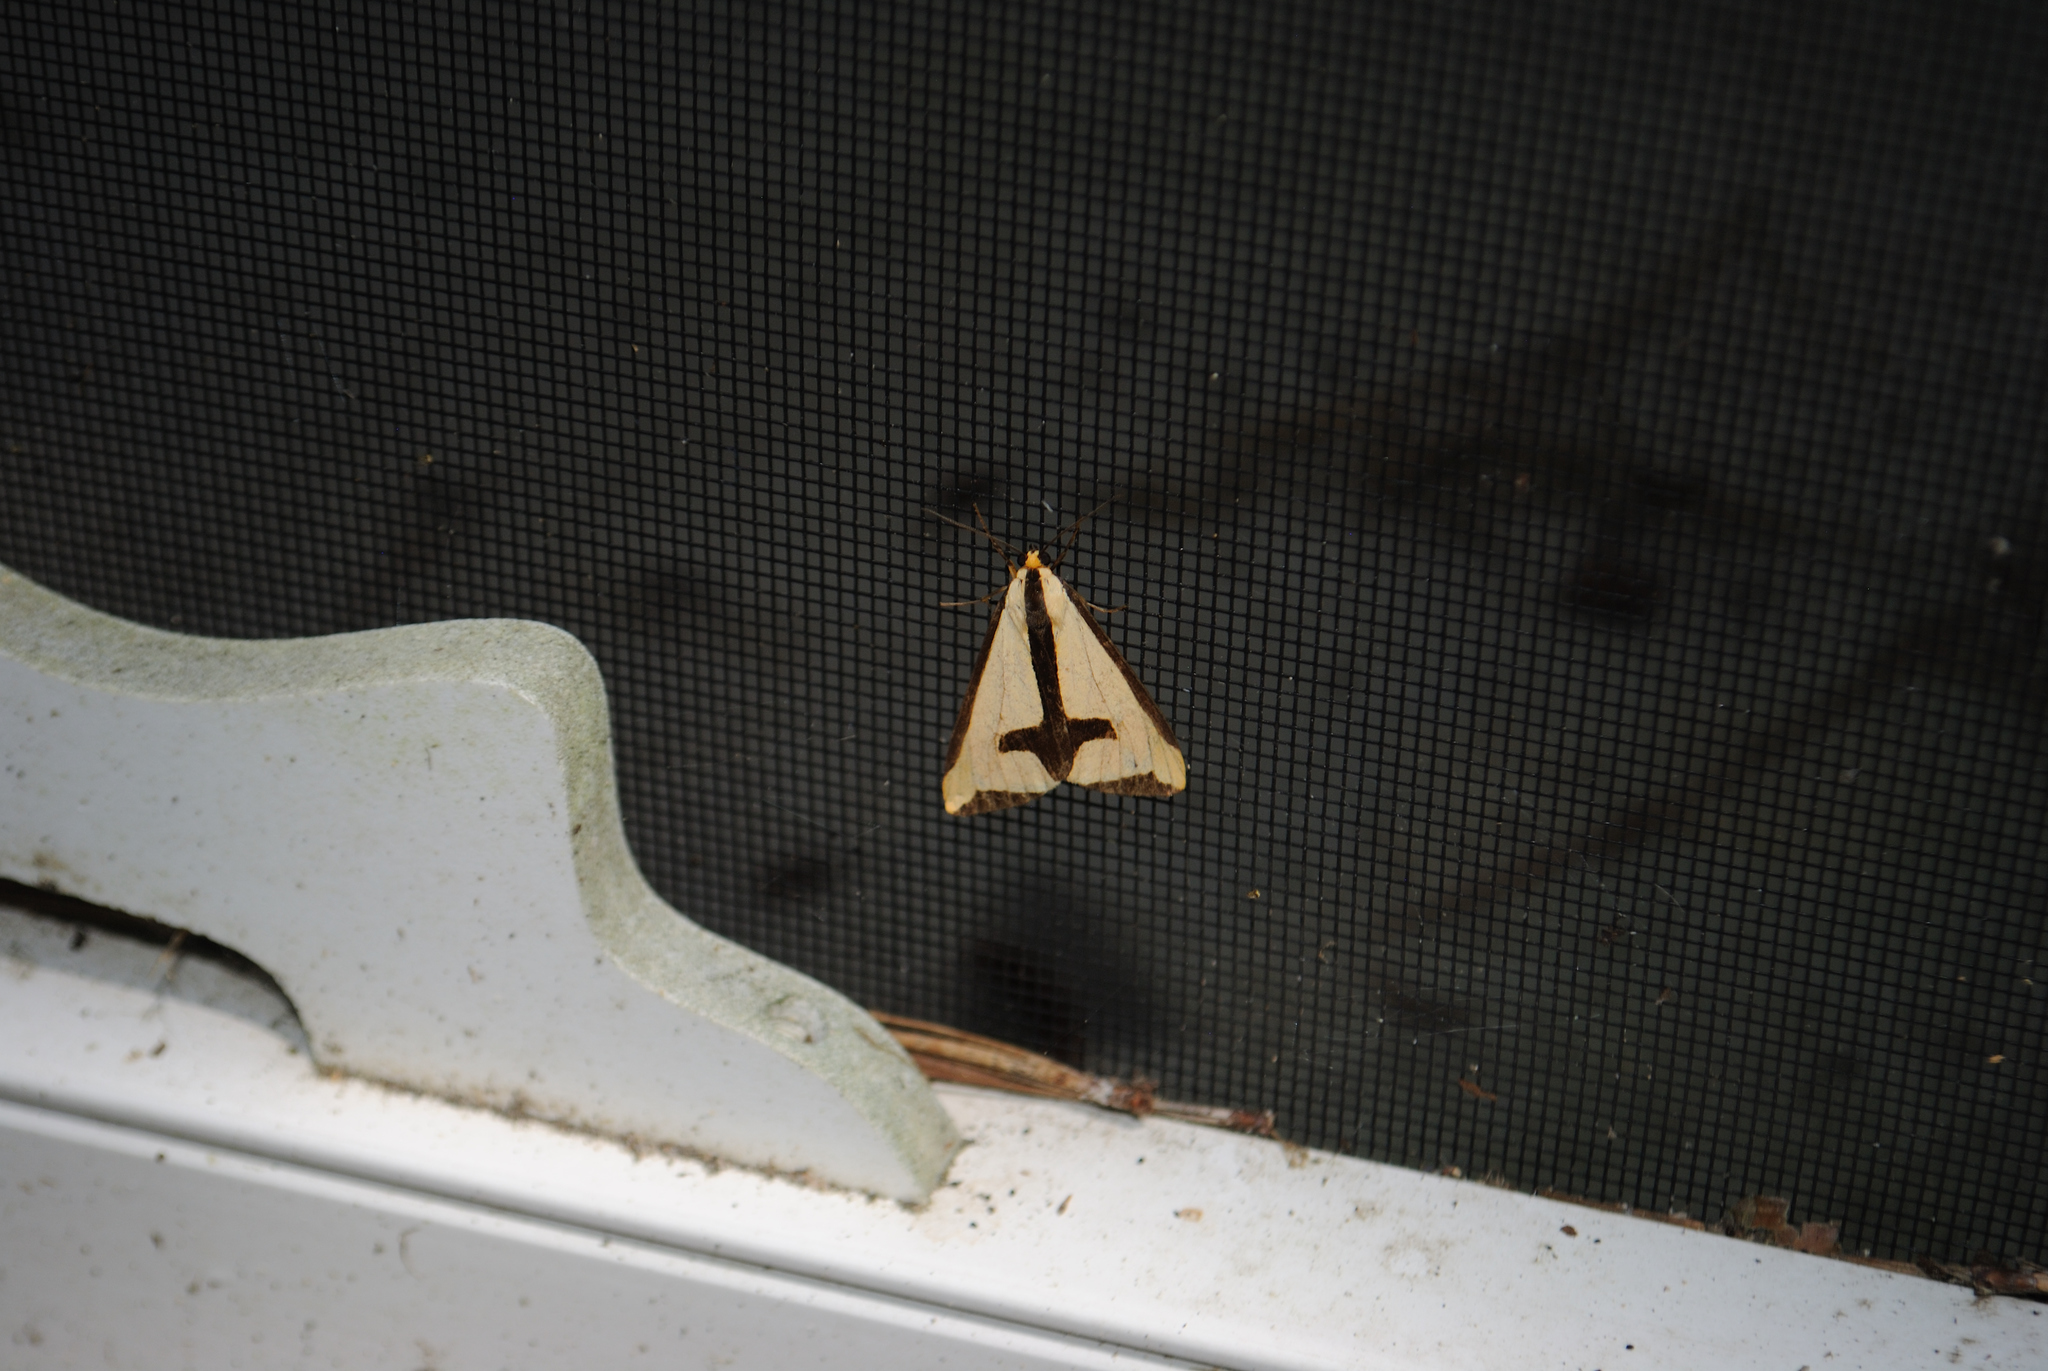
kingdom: Animalia
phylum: Arthropoda
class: Insecta
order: Lepidoptera
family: Erebidae
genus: Haploa
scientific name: Haploa clymene
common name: Clymene moth
